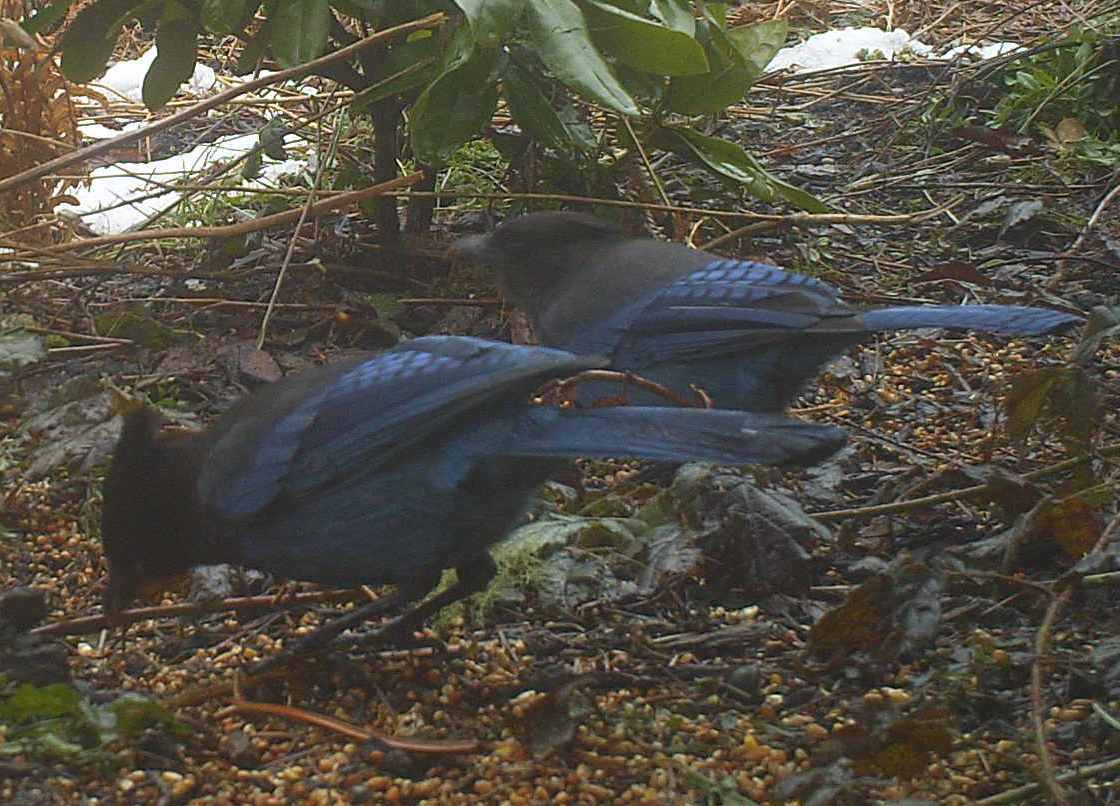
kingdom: Animalia
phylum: Chordata
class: Aves
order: Passeriformes
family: Corvidae
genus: Cyanocitta
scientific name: Cyanocitta stelleri
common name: Steller's jay
